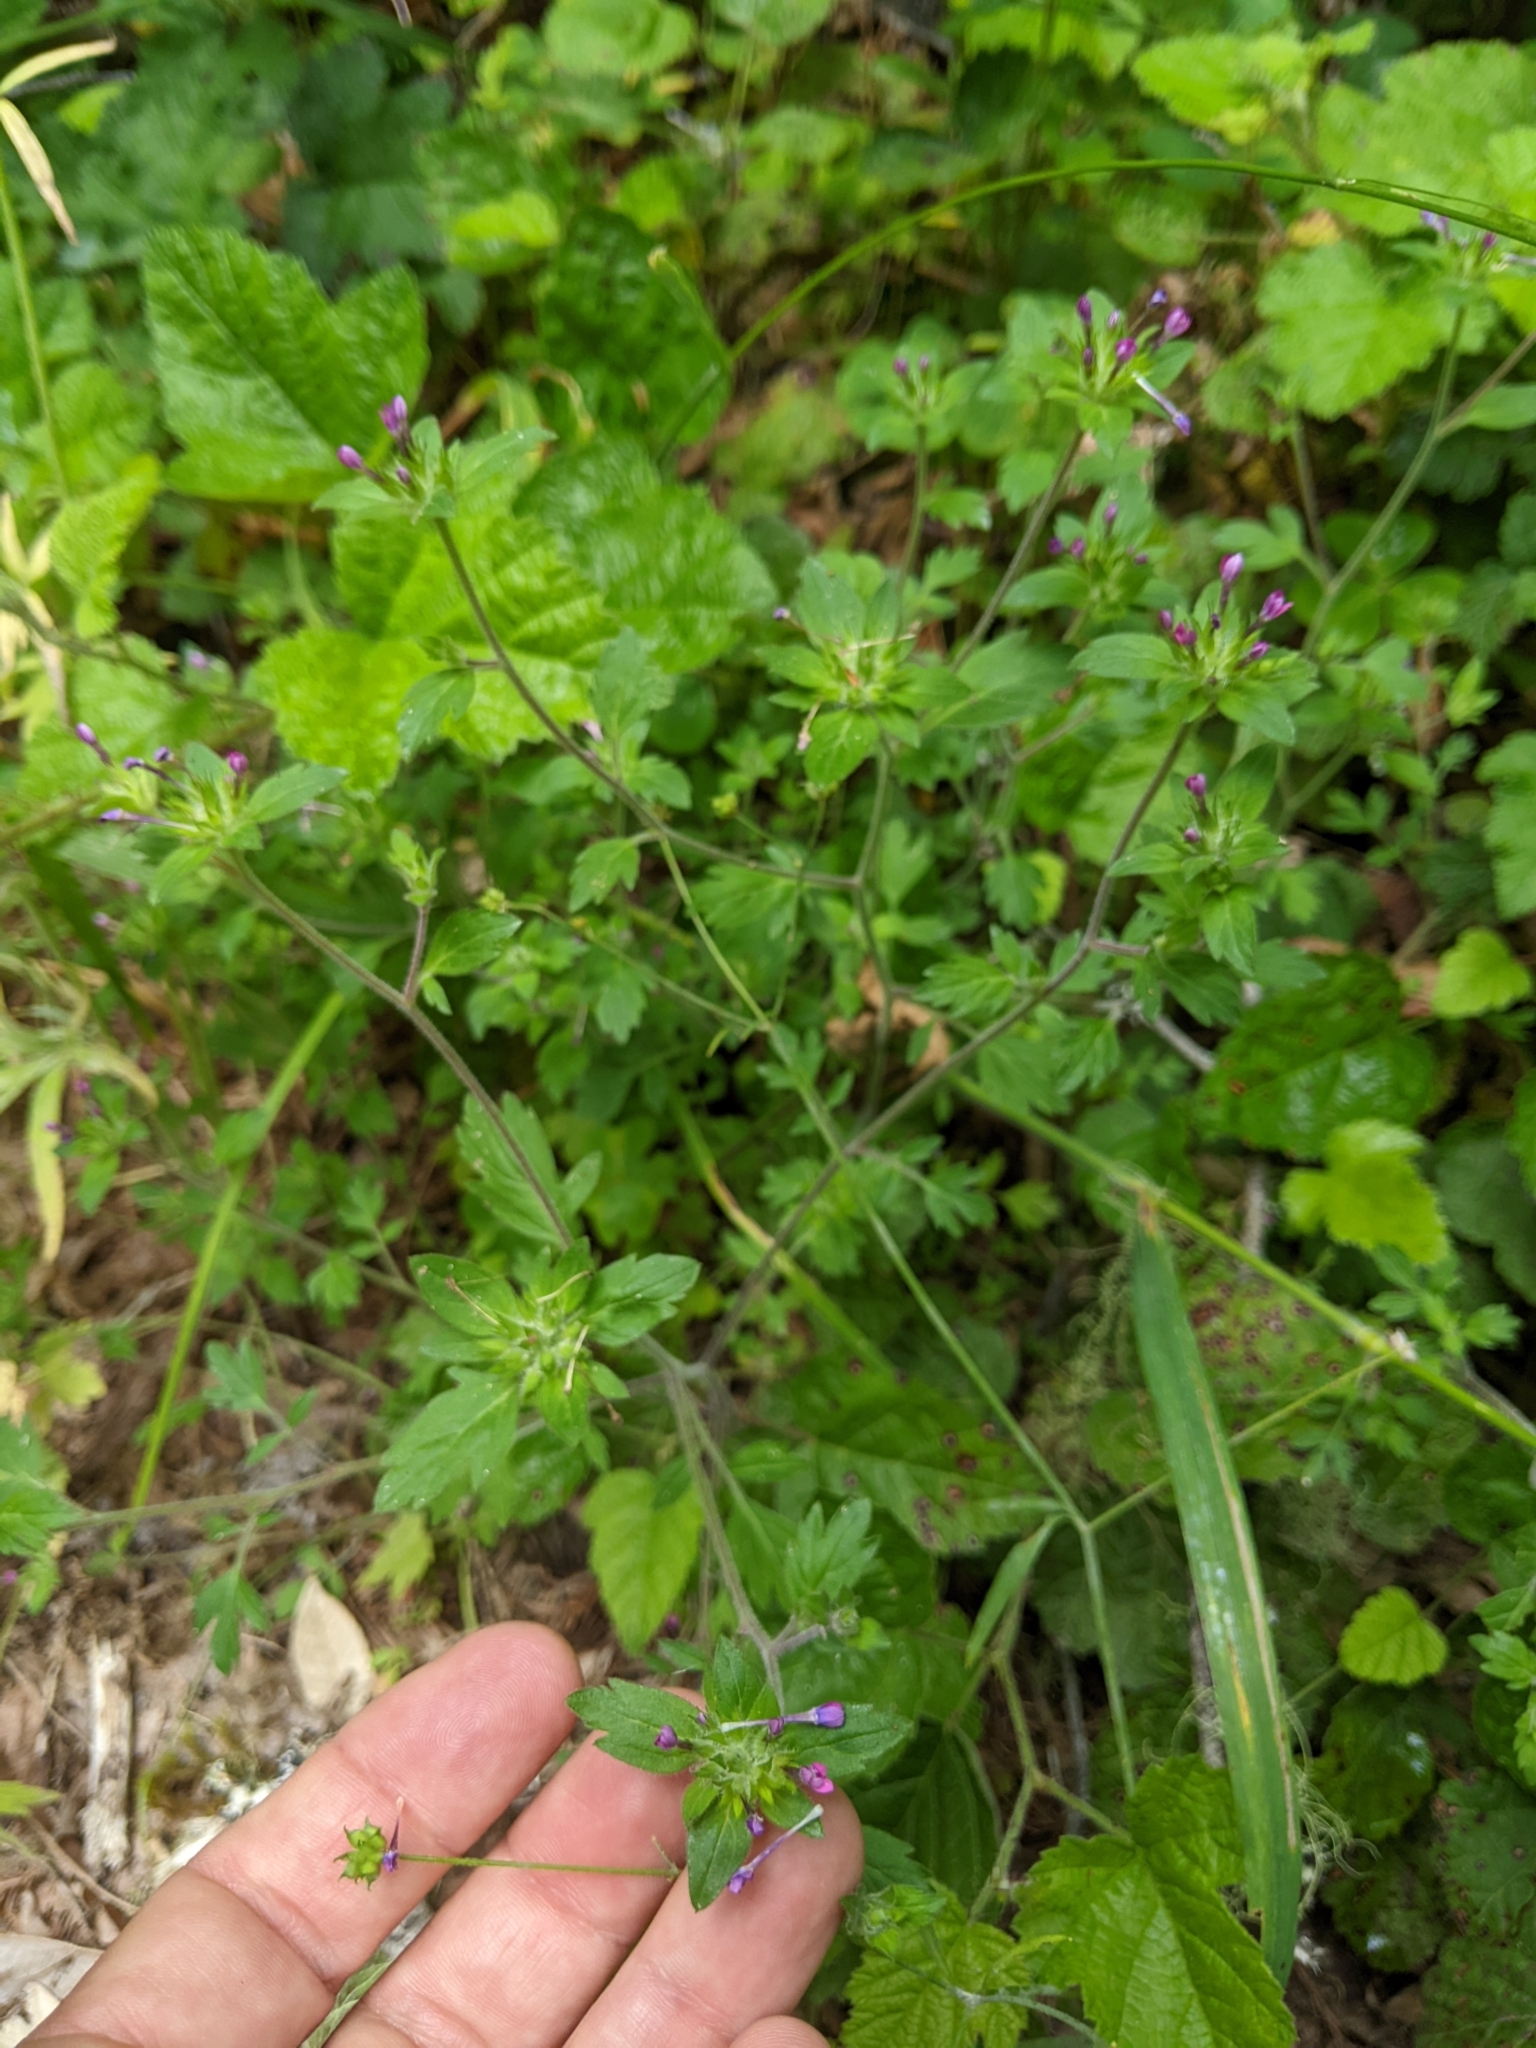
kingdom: Plantae
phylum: Tracheophyta
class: Magnoliopsida
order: Ericales
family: Polemoniaceae
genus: Collomia
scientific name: Collomia heterophylla
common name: Variable-leaved collomia
